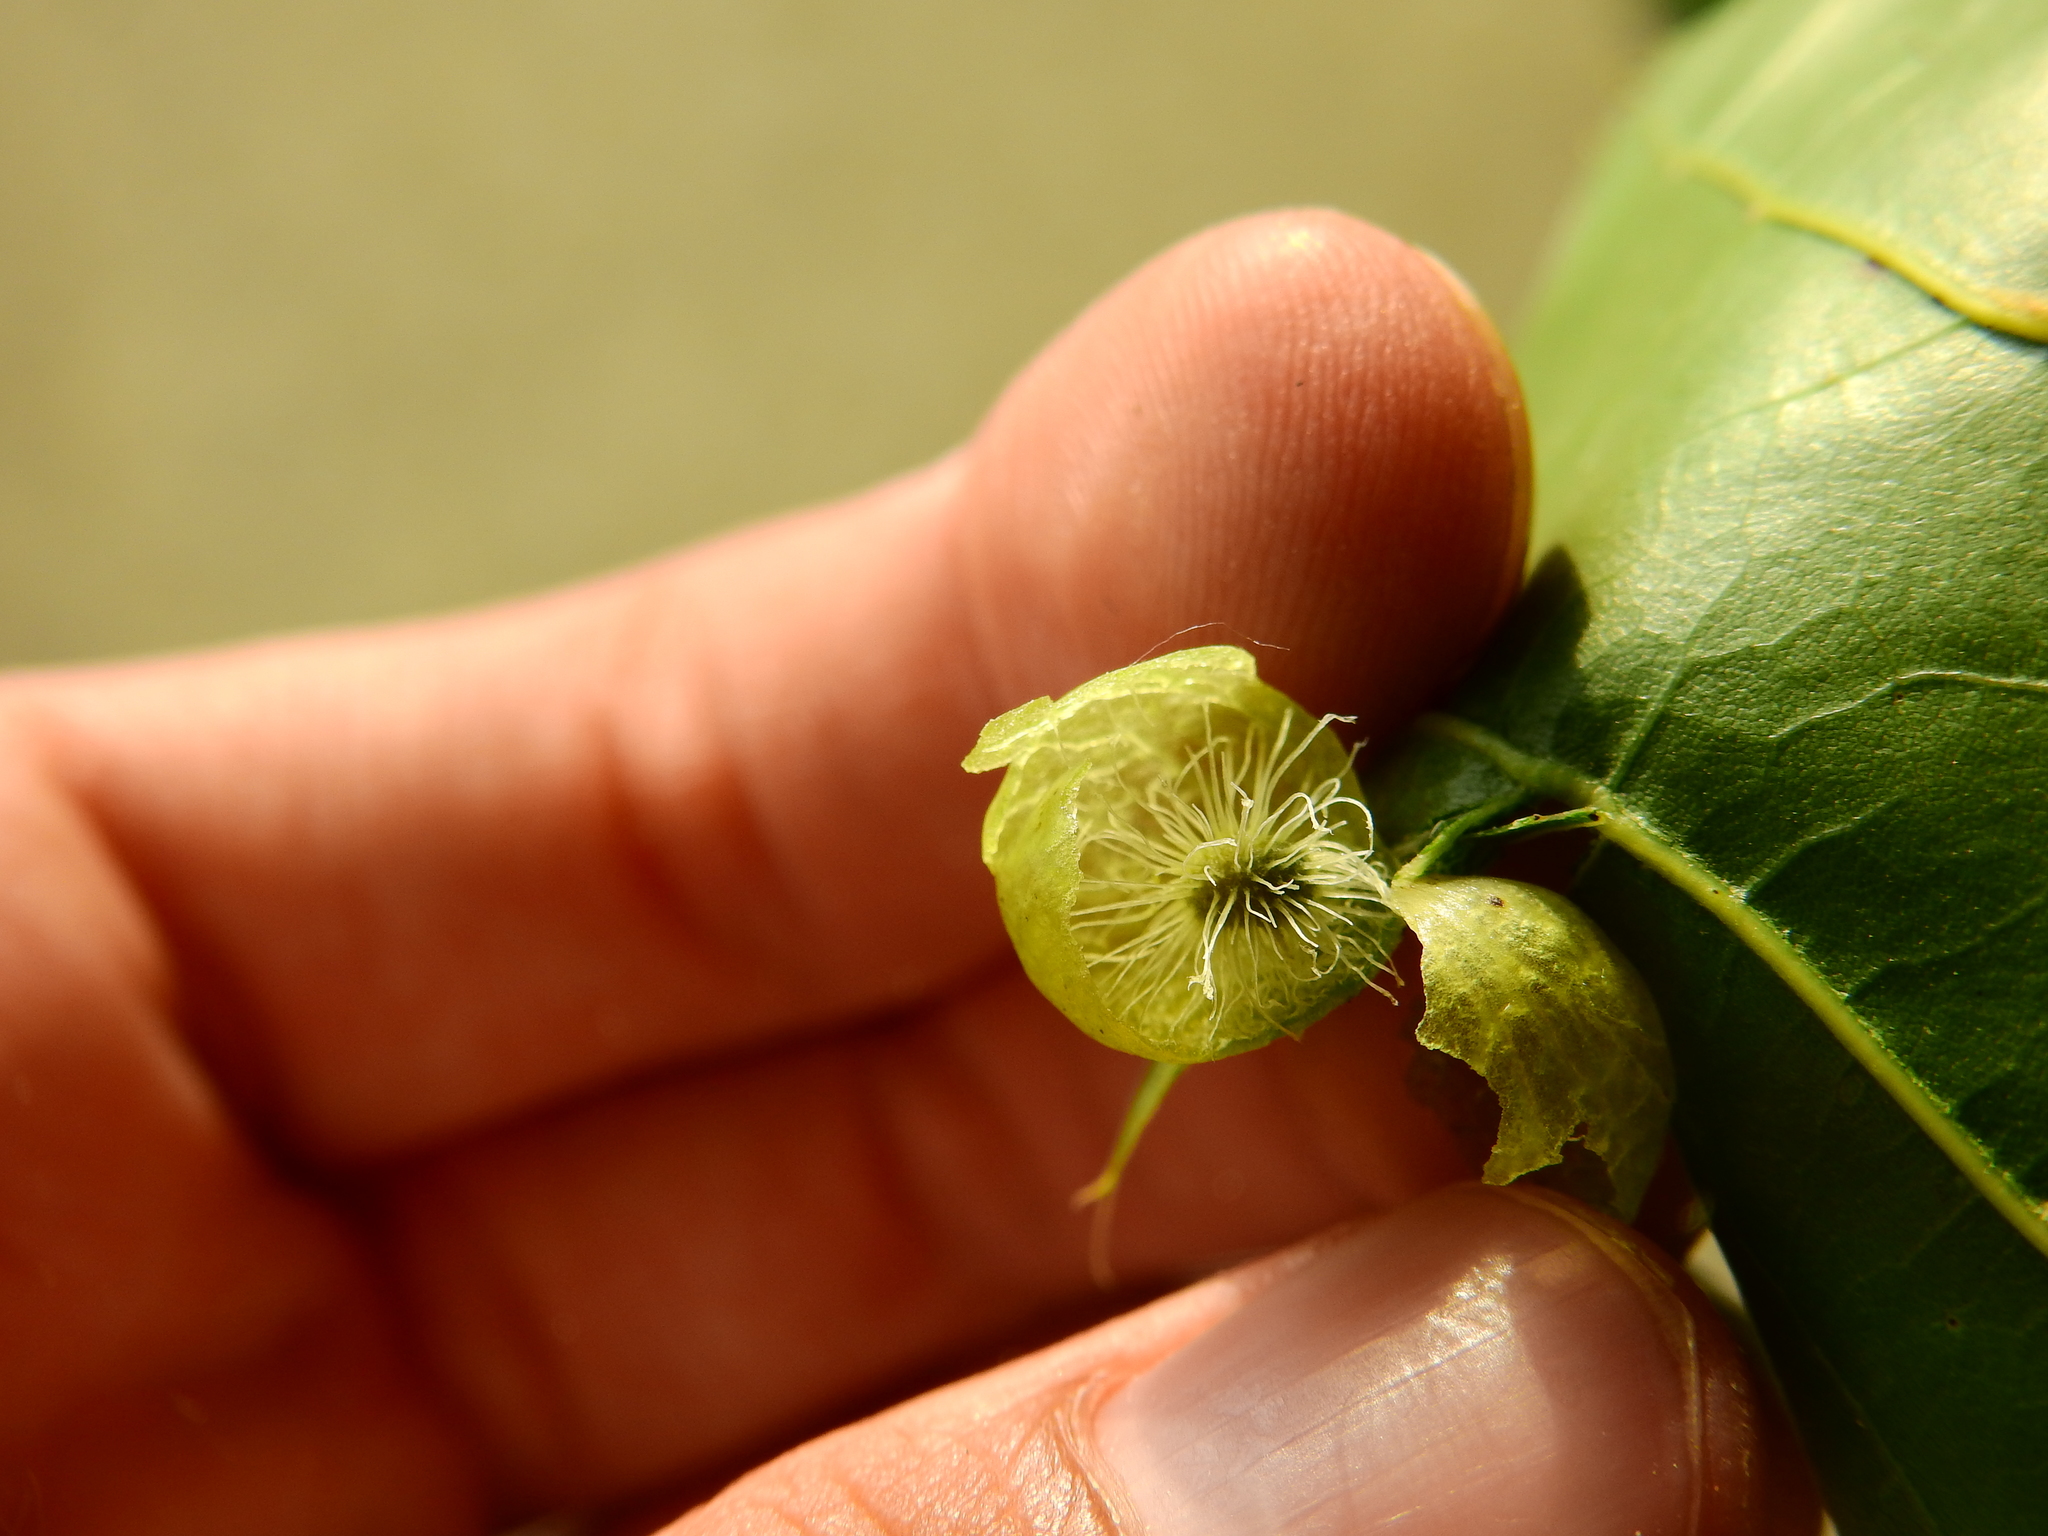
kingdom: Animalia
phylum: Arthropoda
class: Insecta
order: Hymenoptera
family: Cynipidae
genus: Amphibolips
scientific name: Amphibolips
